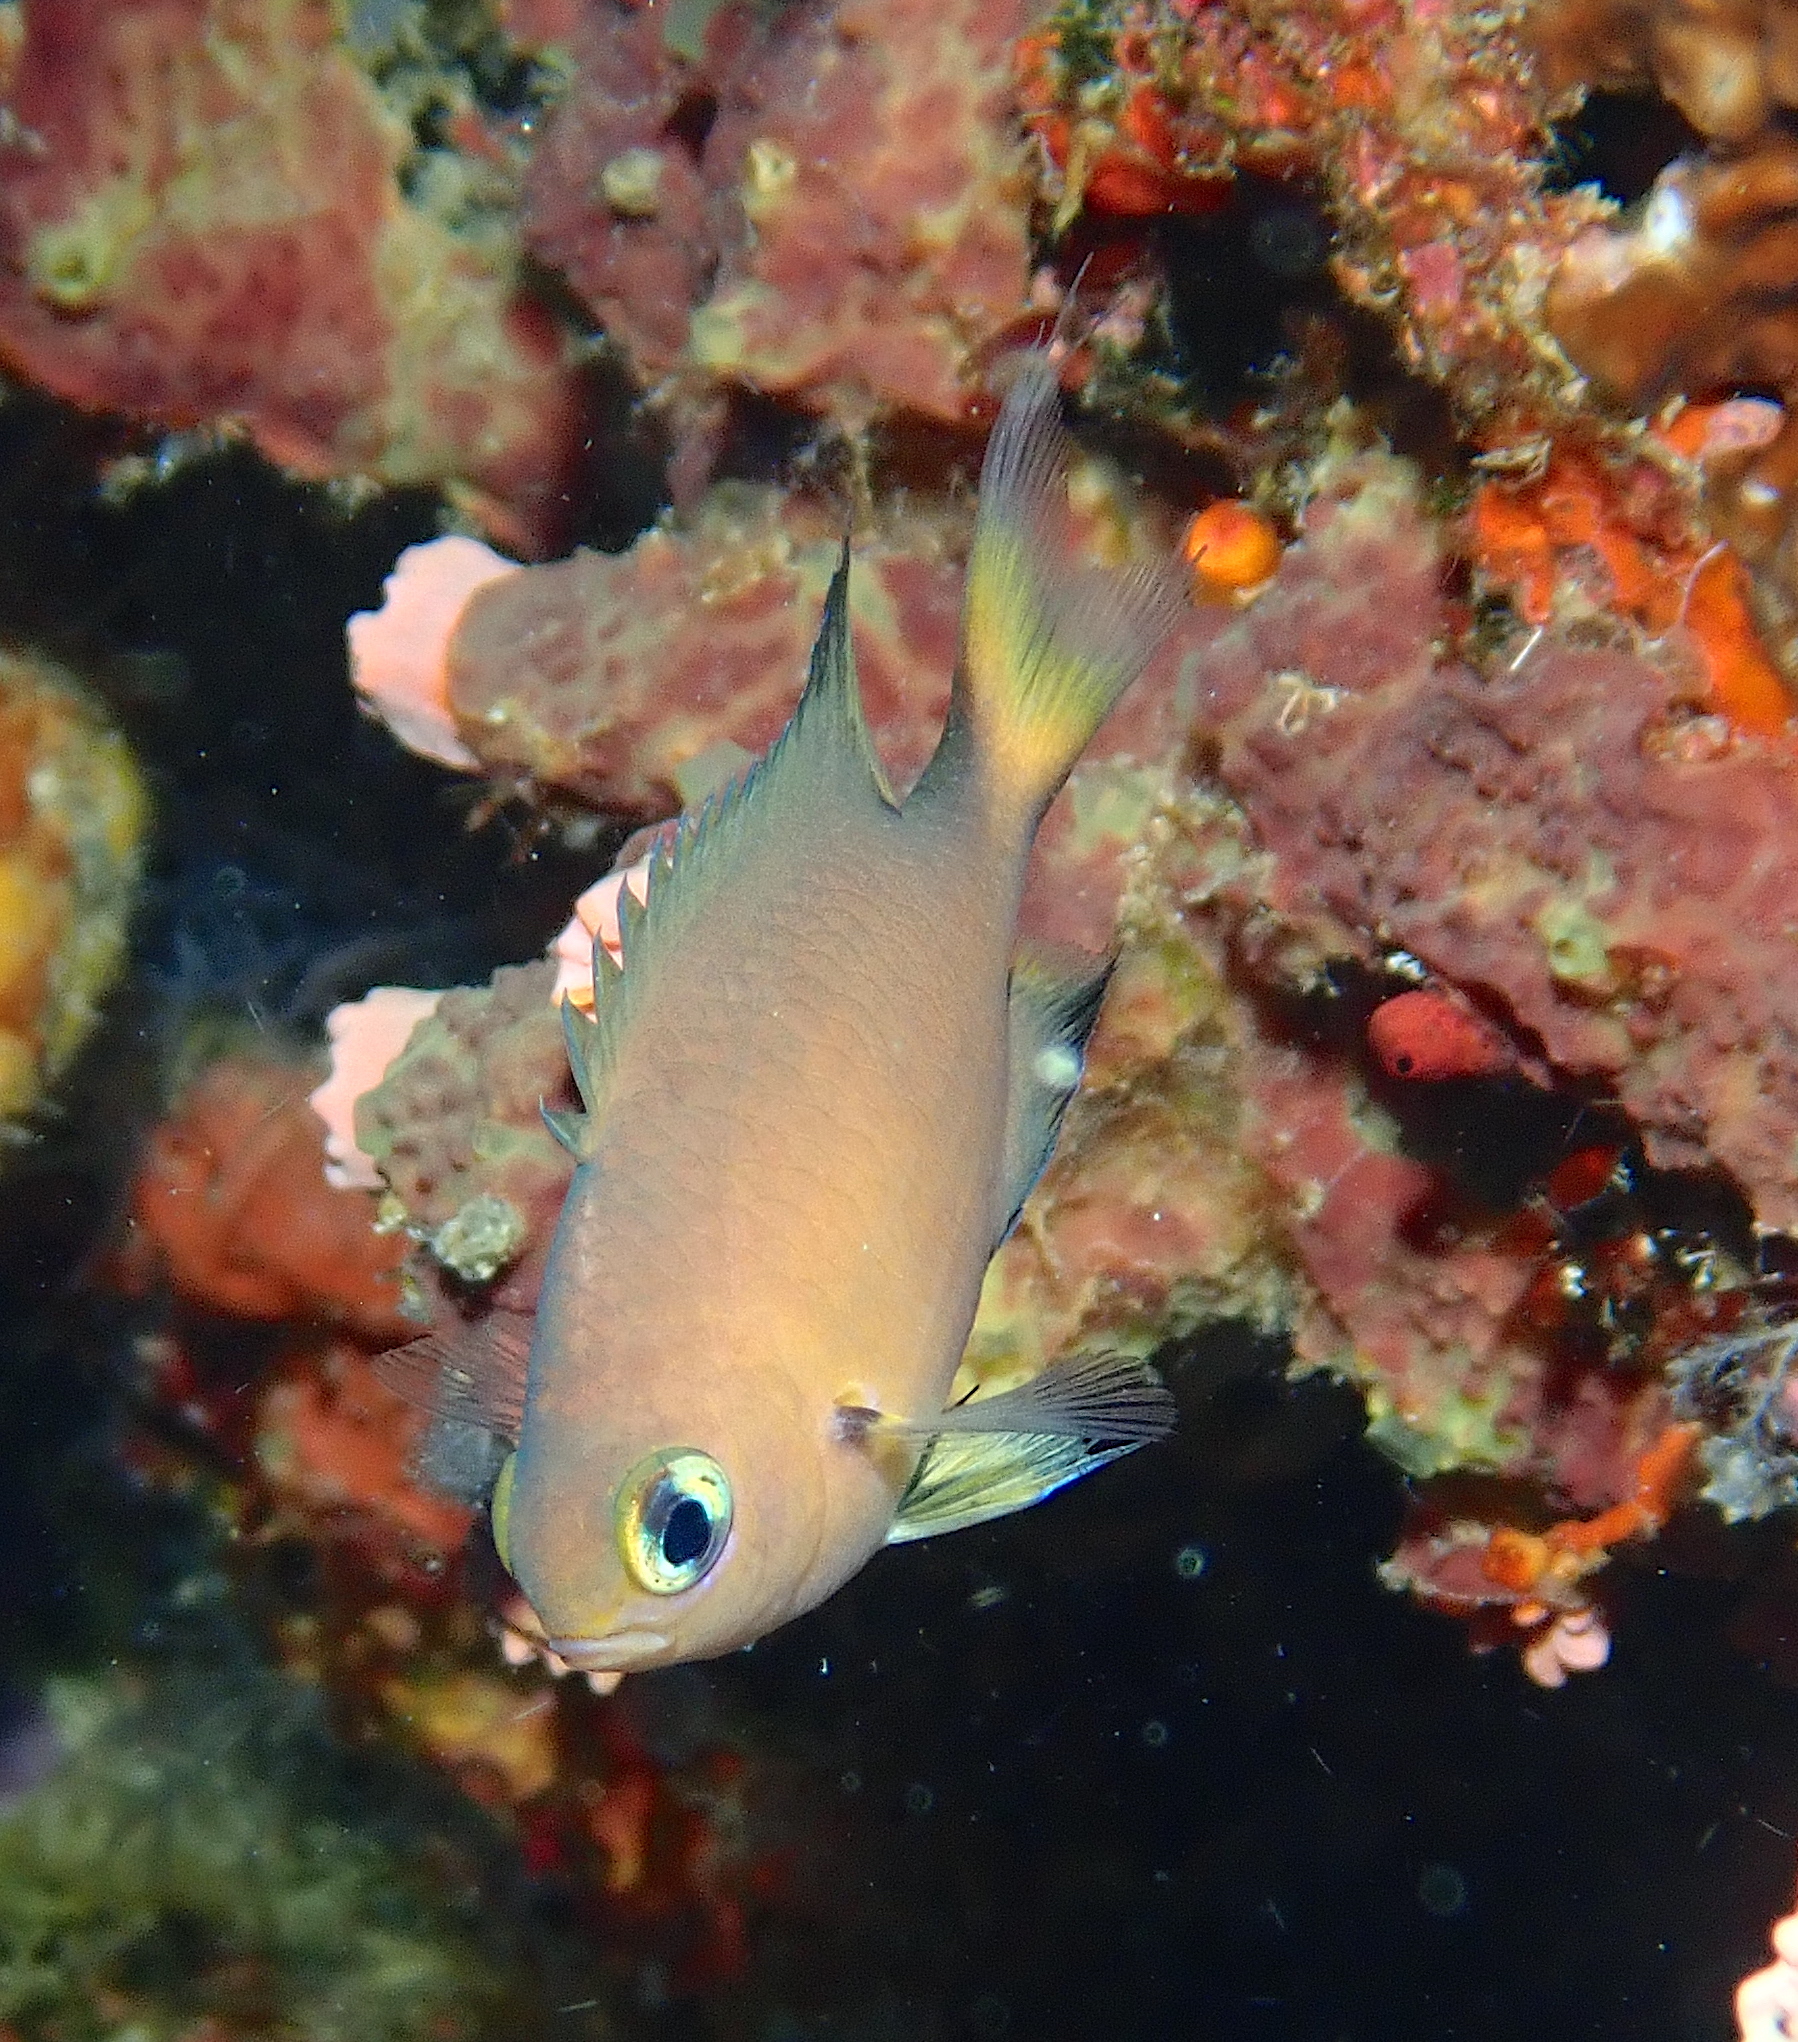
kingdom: Animalia
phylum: Chordata
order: Perciformes
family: Pomacentridae
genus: Chromis
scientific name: Chromis atripes
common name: Dark-fin chromis
